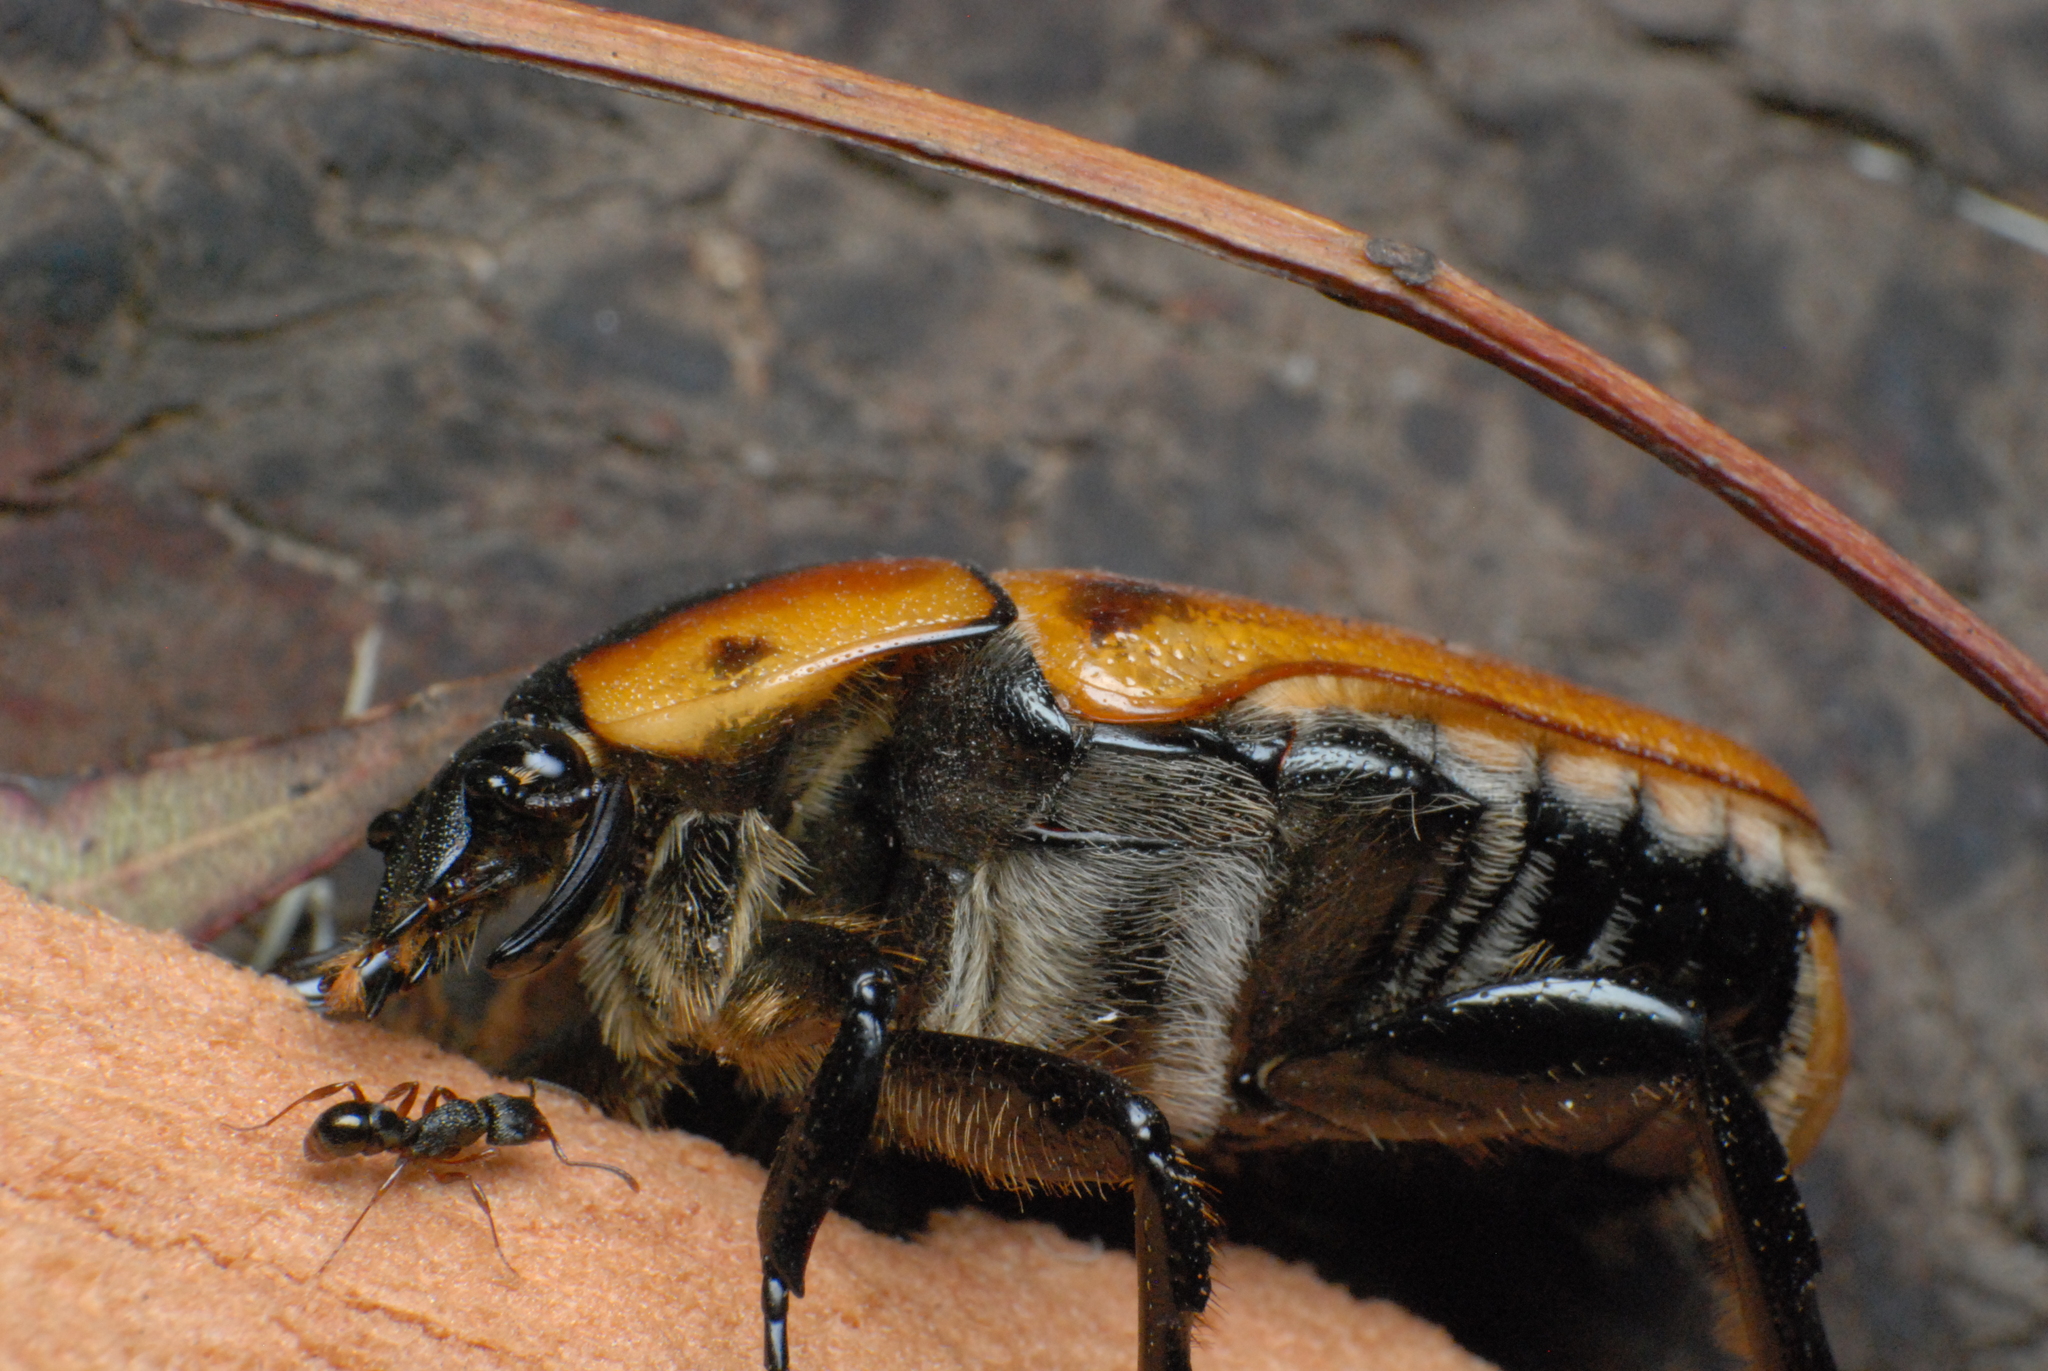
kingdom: Animalia
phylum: Arthropoda
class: Insecta
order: Coleoptera
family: Scarabaeidae
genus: Chondropyga
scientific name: Chondropyga dorsalis
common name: Cowboy beetle
